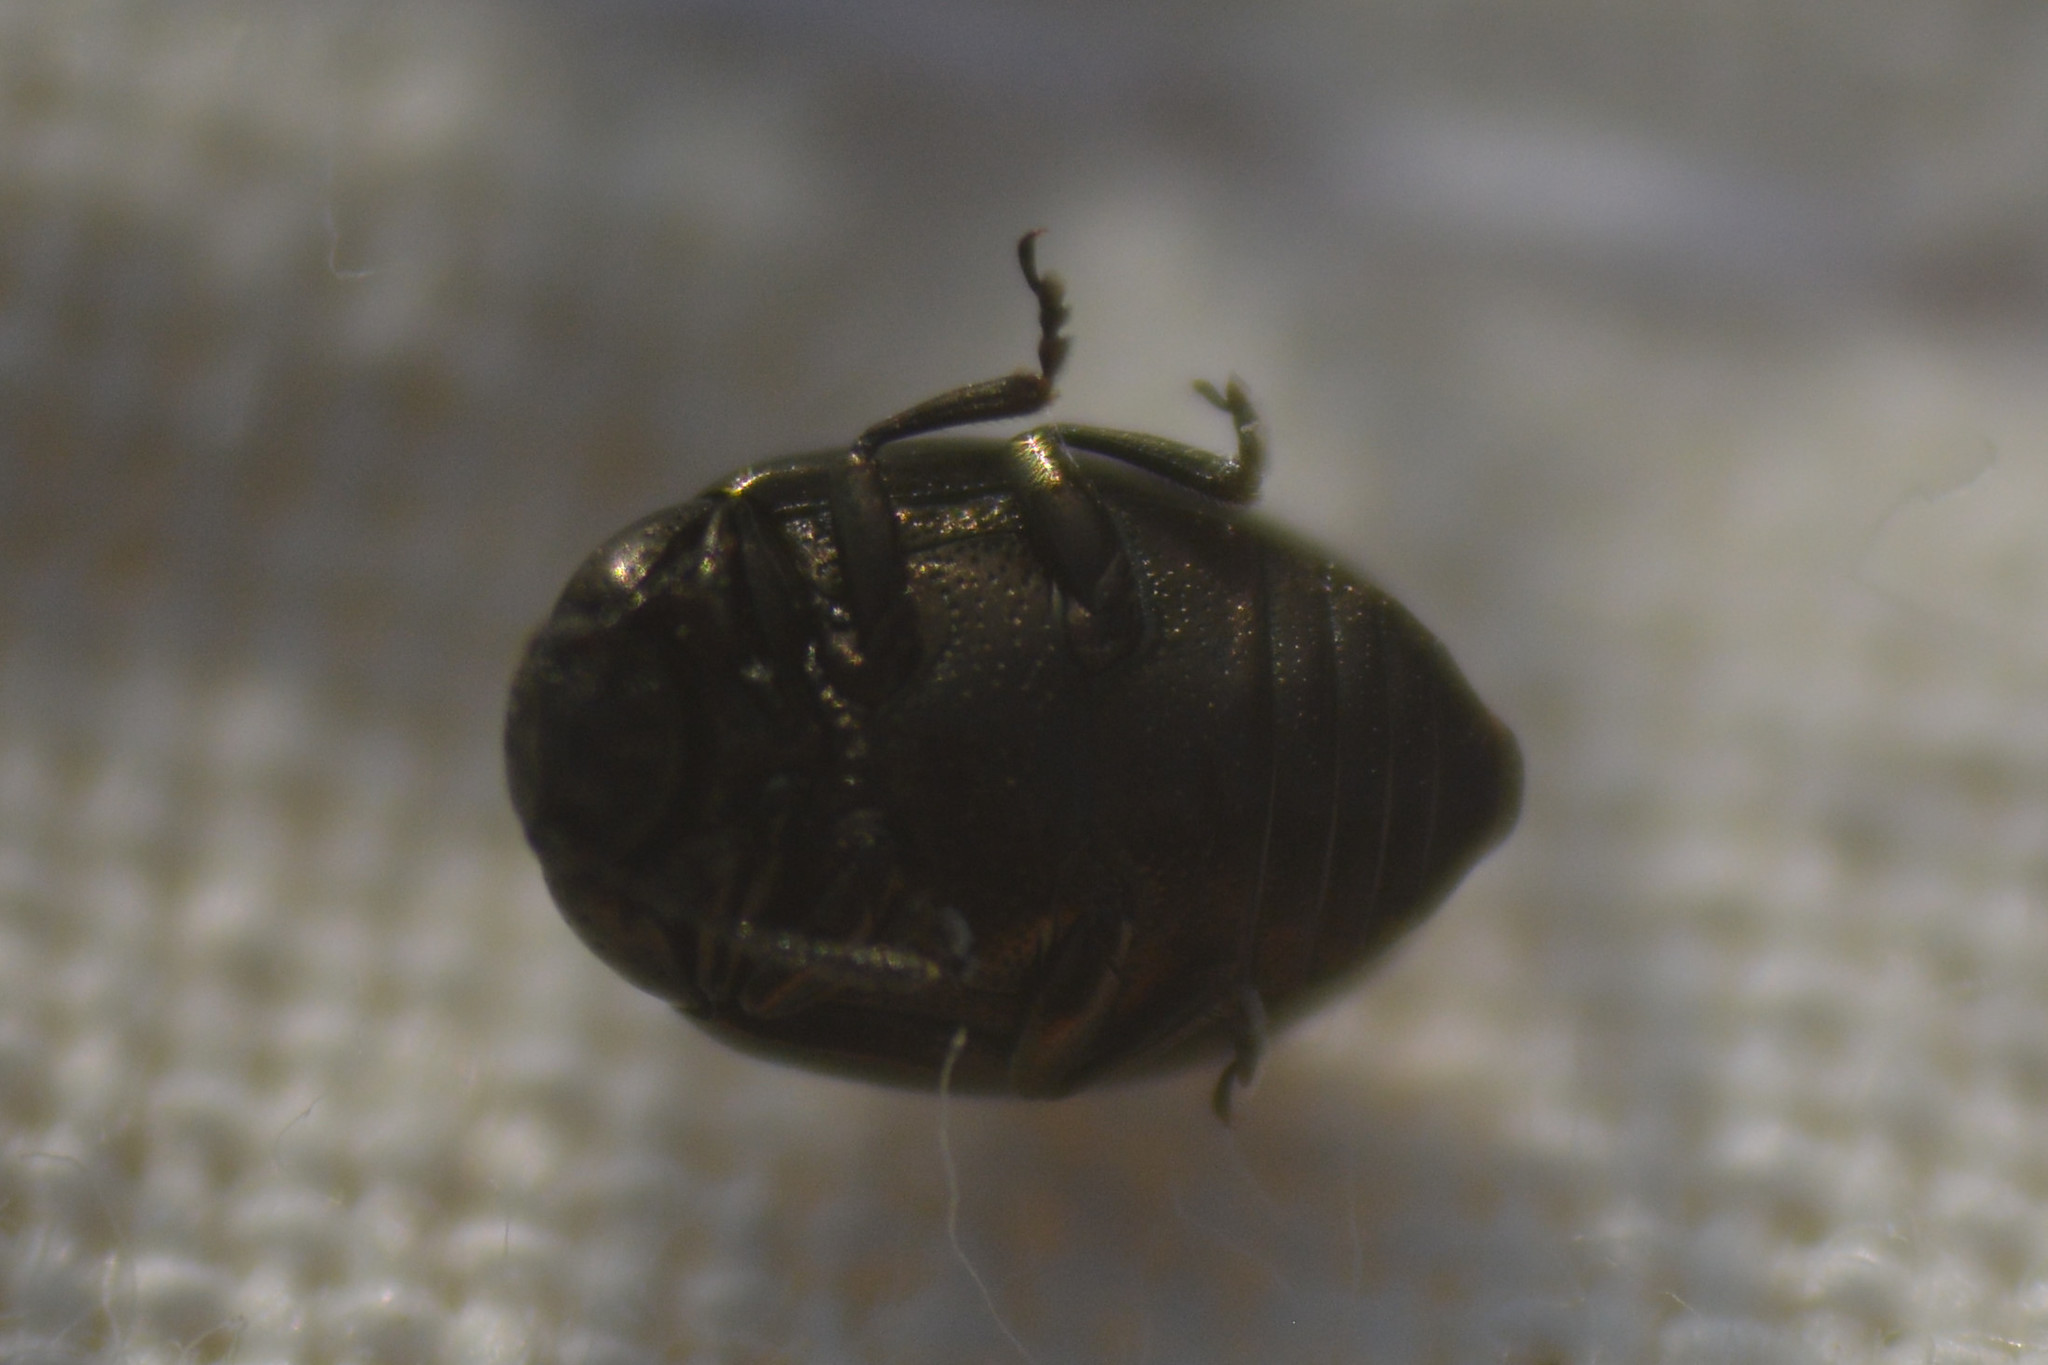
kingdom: Animalia
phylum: Arthropoda
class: Insecta
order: Coleoptera
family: Chrysomelidae
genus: Phaedon
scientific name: Phaedon tumidulus
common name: Celery leaf beetle
